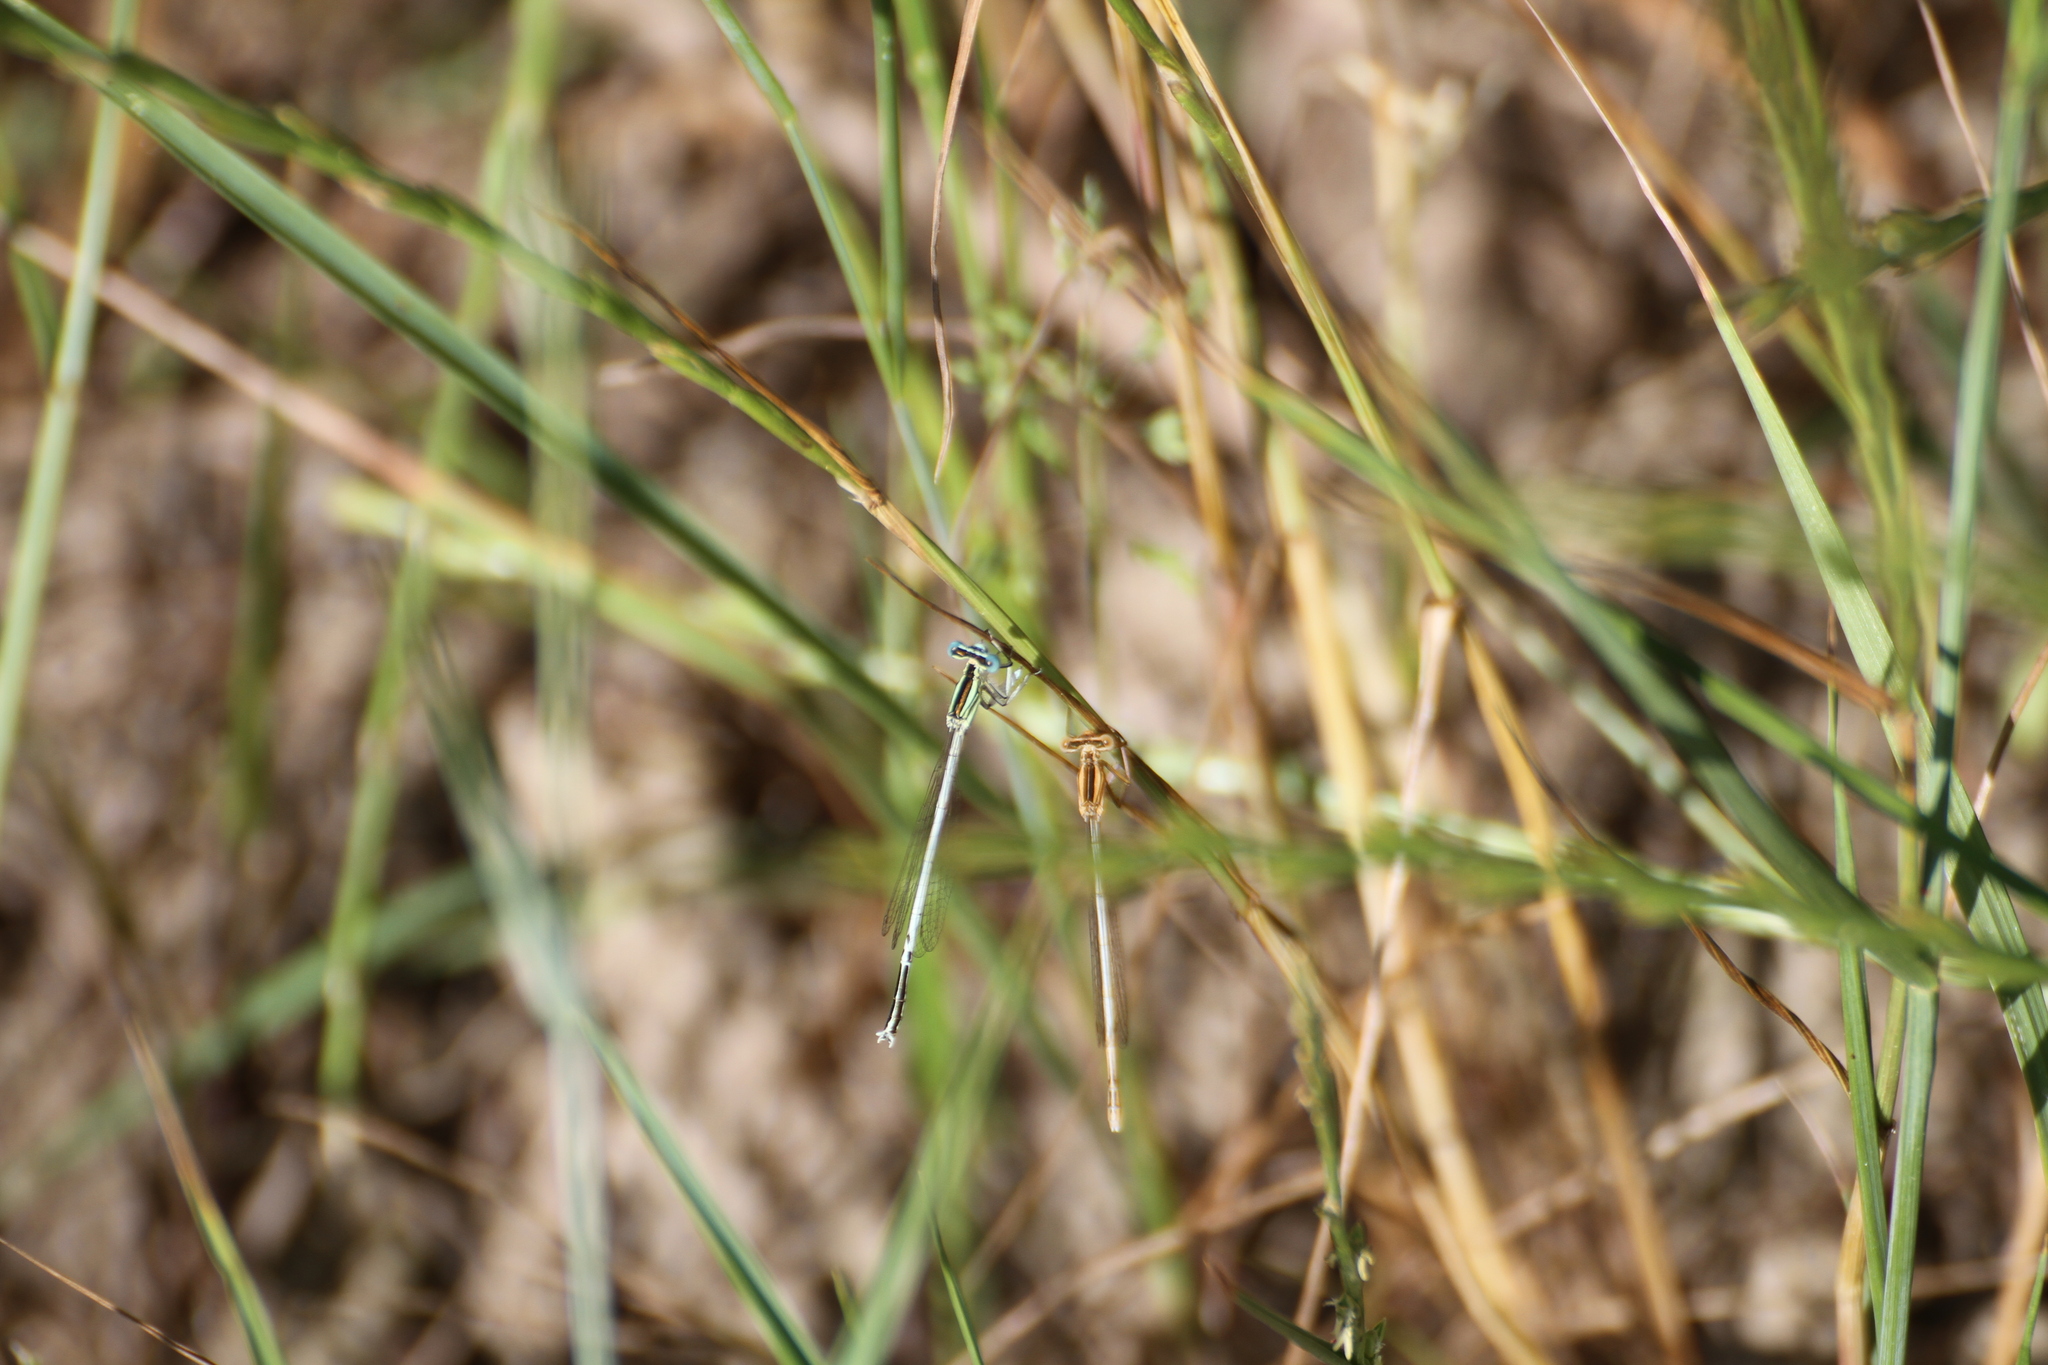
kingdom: Animalia
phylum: Arthropoda
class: Insecta
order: Odonata
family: Platycnemididae
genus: Platycnemis
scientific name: Platycnemis latipes
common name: White featherleg
